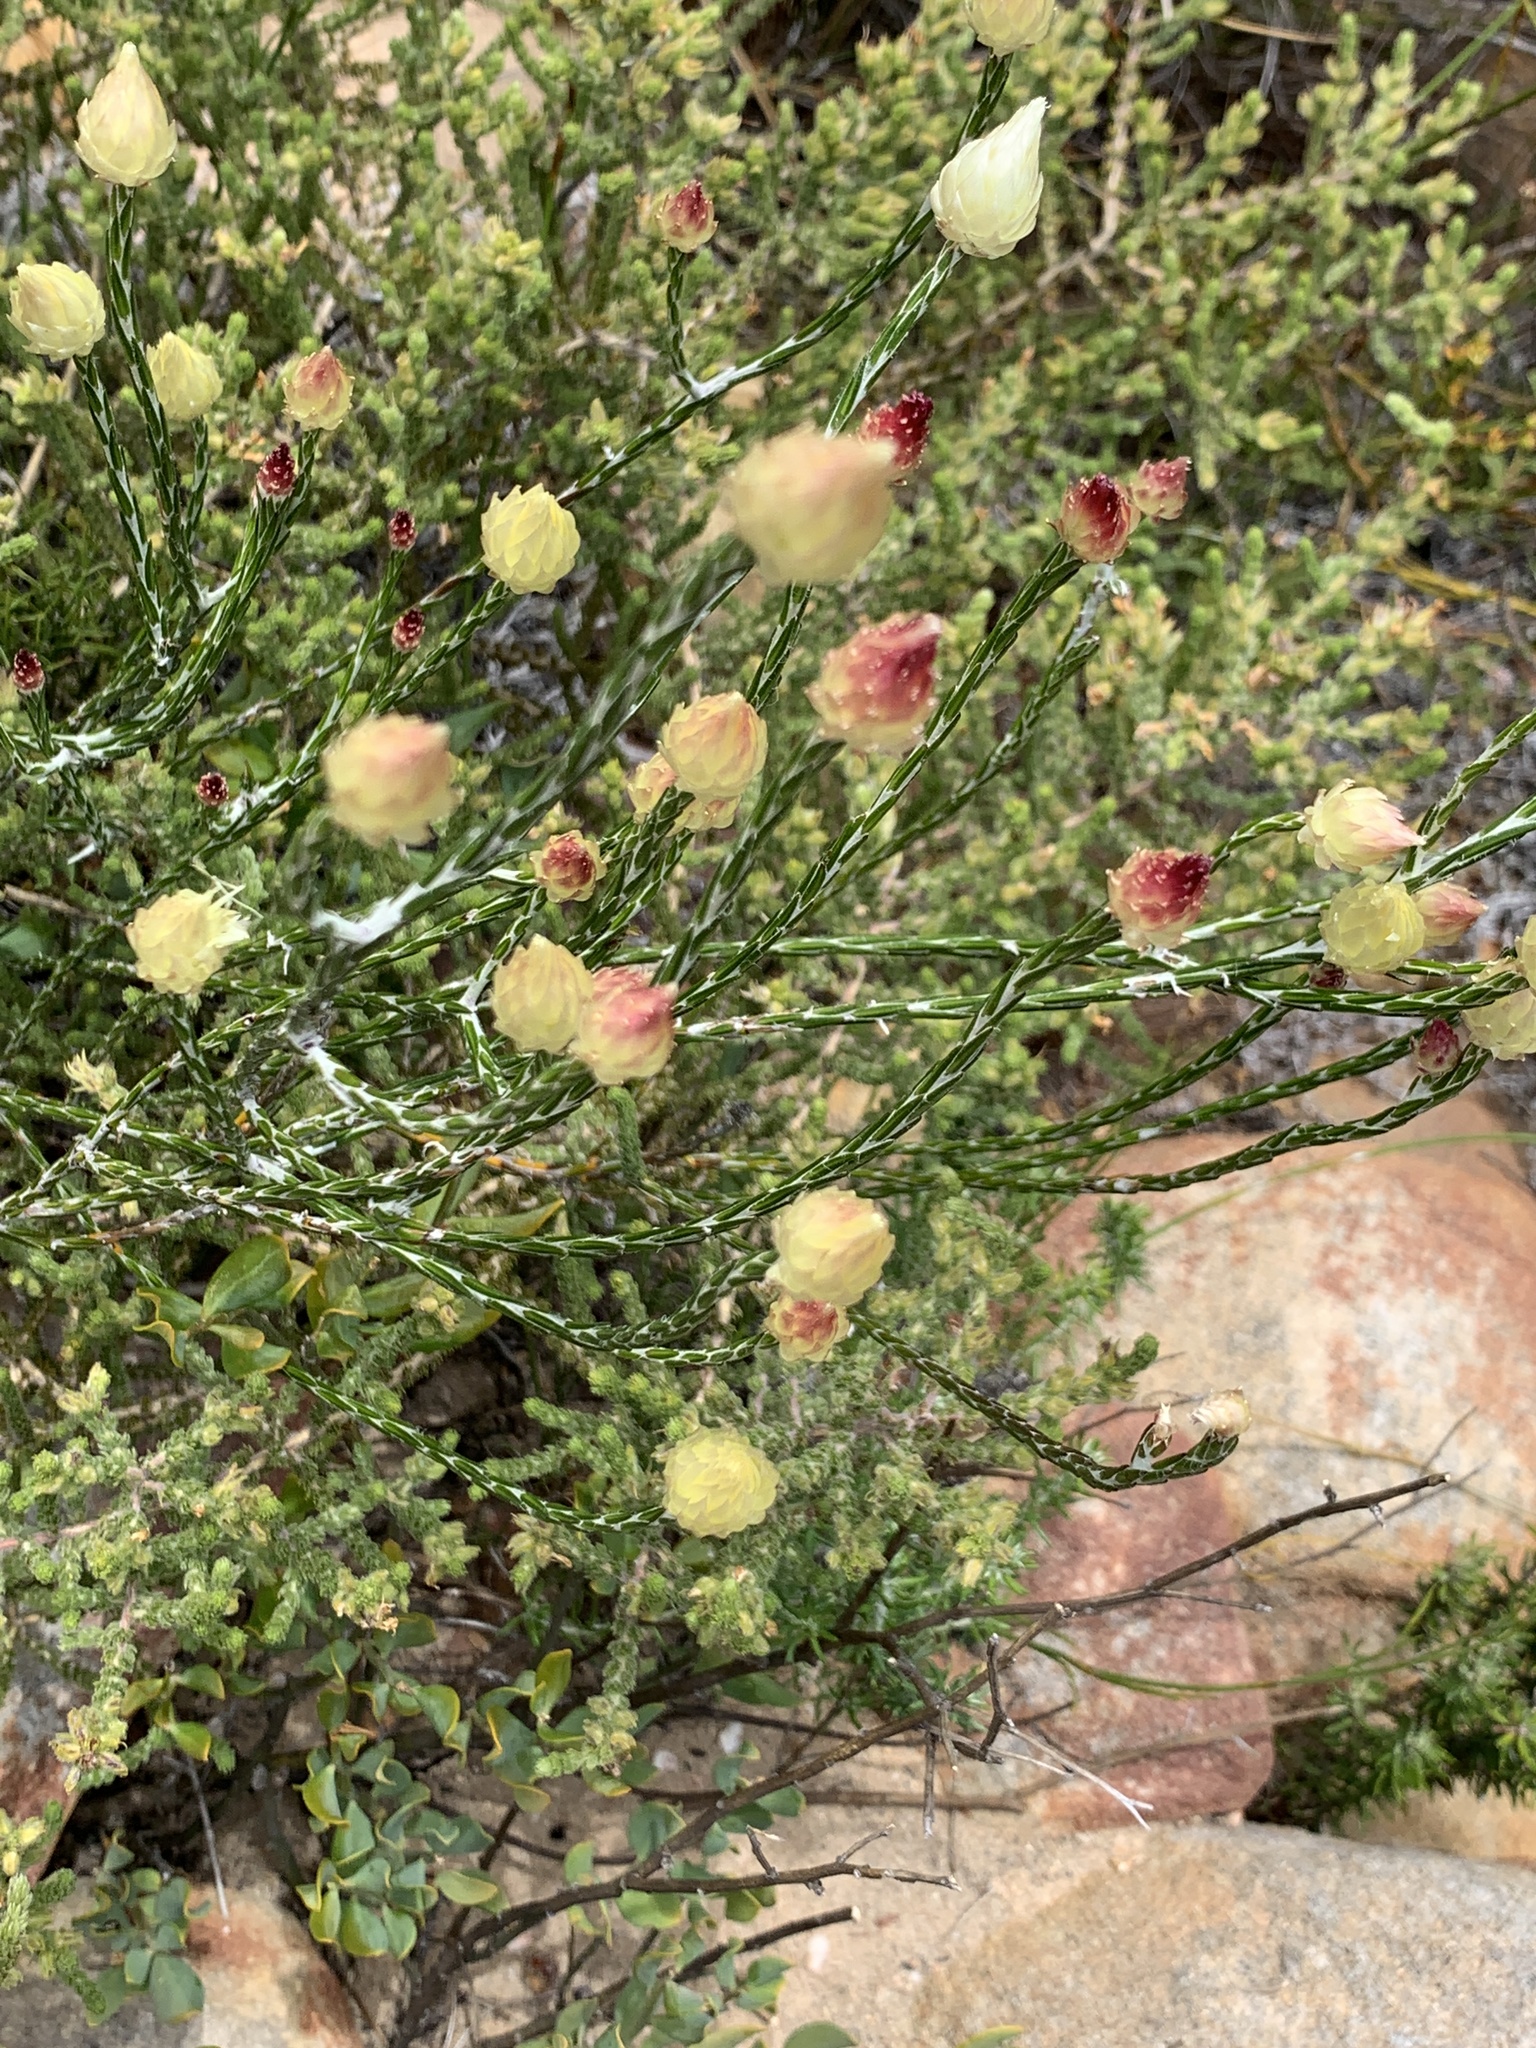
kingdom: Plantae
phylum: Tracheophyta
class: Magnoliopsida
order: Asterales
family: Asteraceae
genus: Edmondia
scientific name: Edmondia sesamoides
